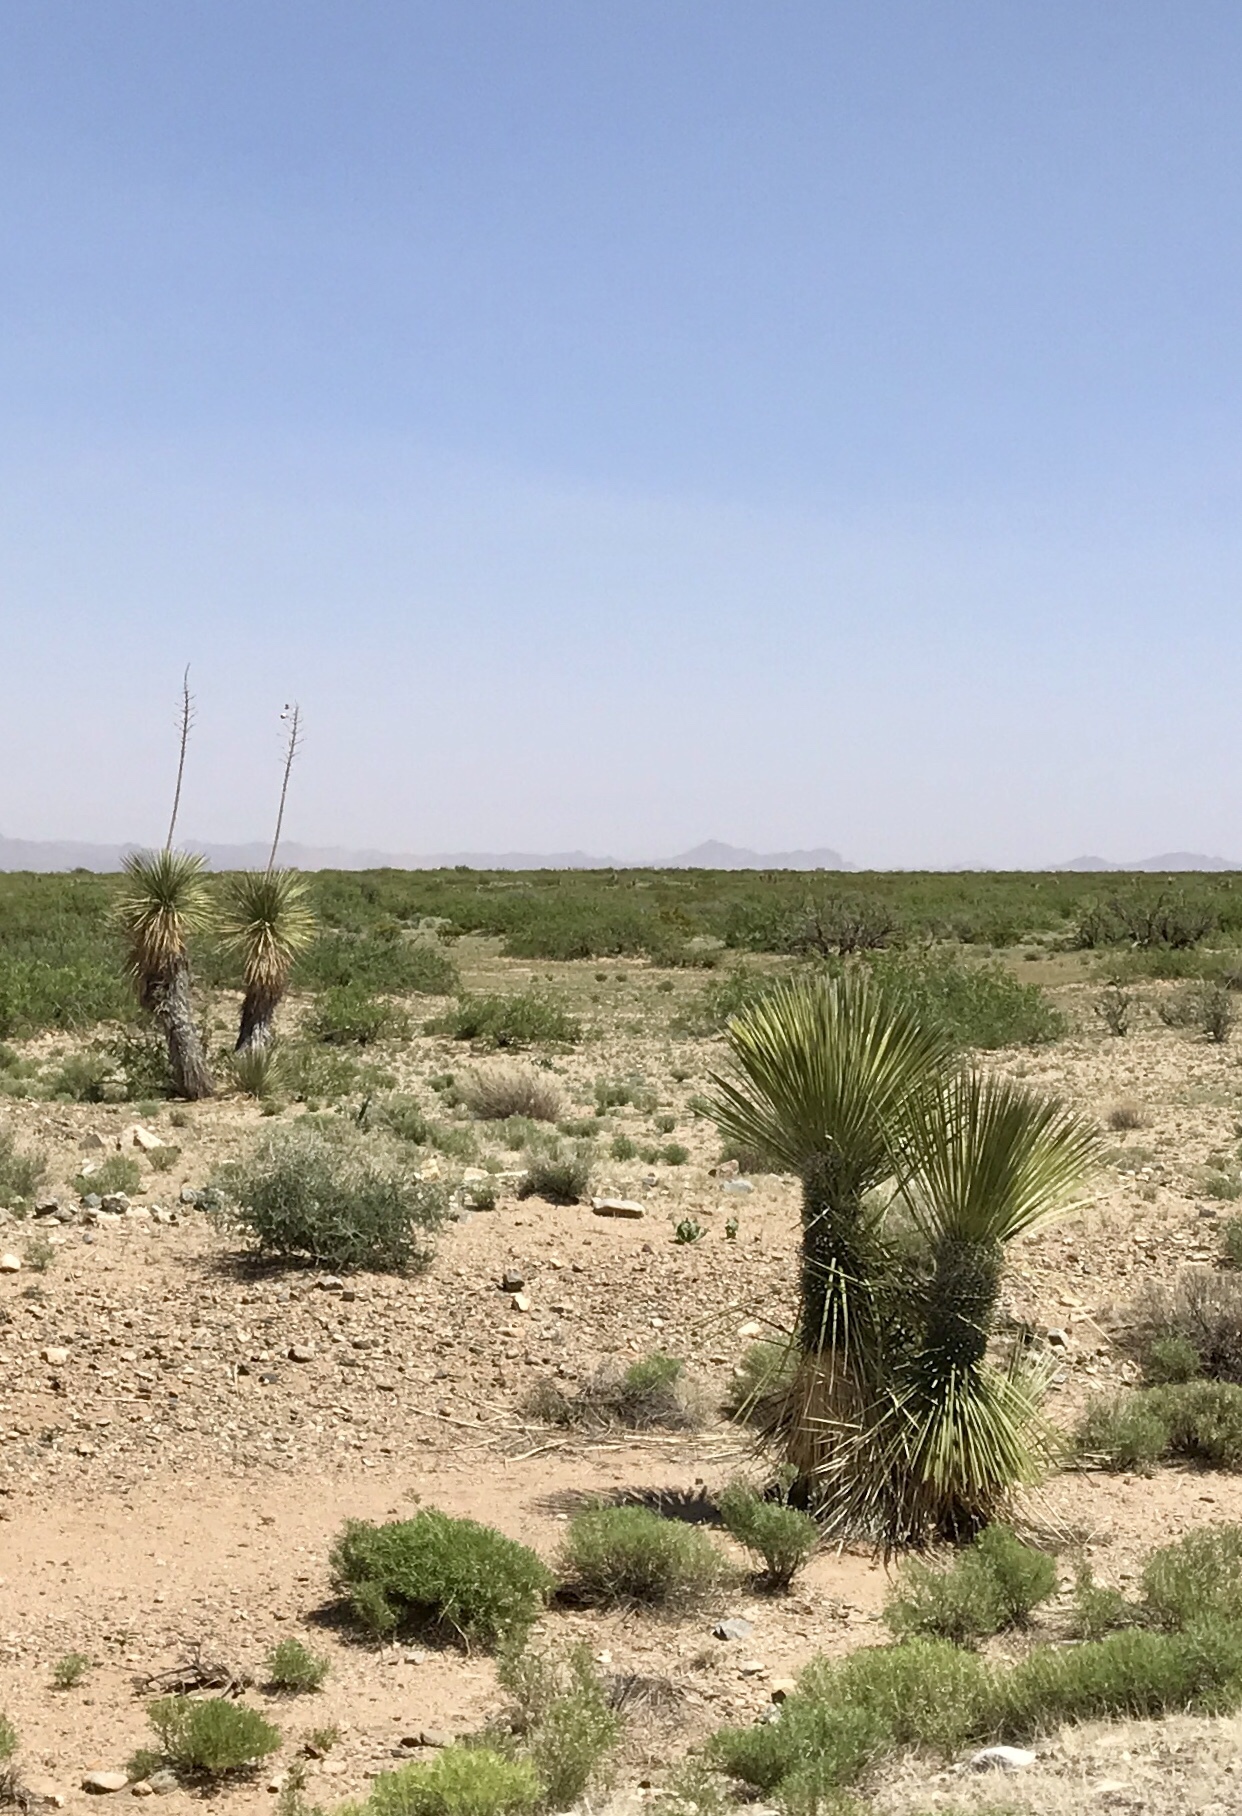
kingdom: Plantae
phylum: Tracheophyta
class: Liliopsida
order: Asparagales
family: Asparagaceae
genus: Yucca
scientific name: Yucca elata
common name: Palmella
